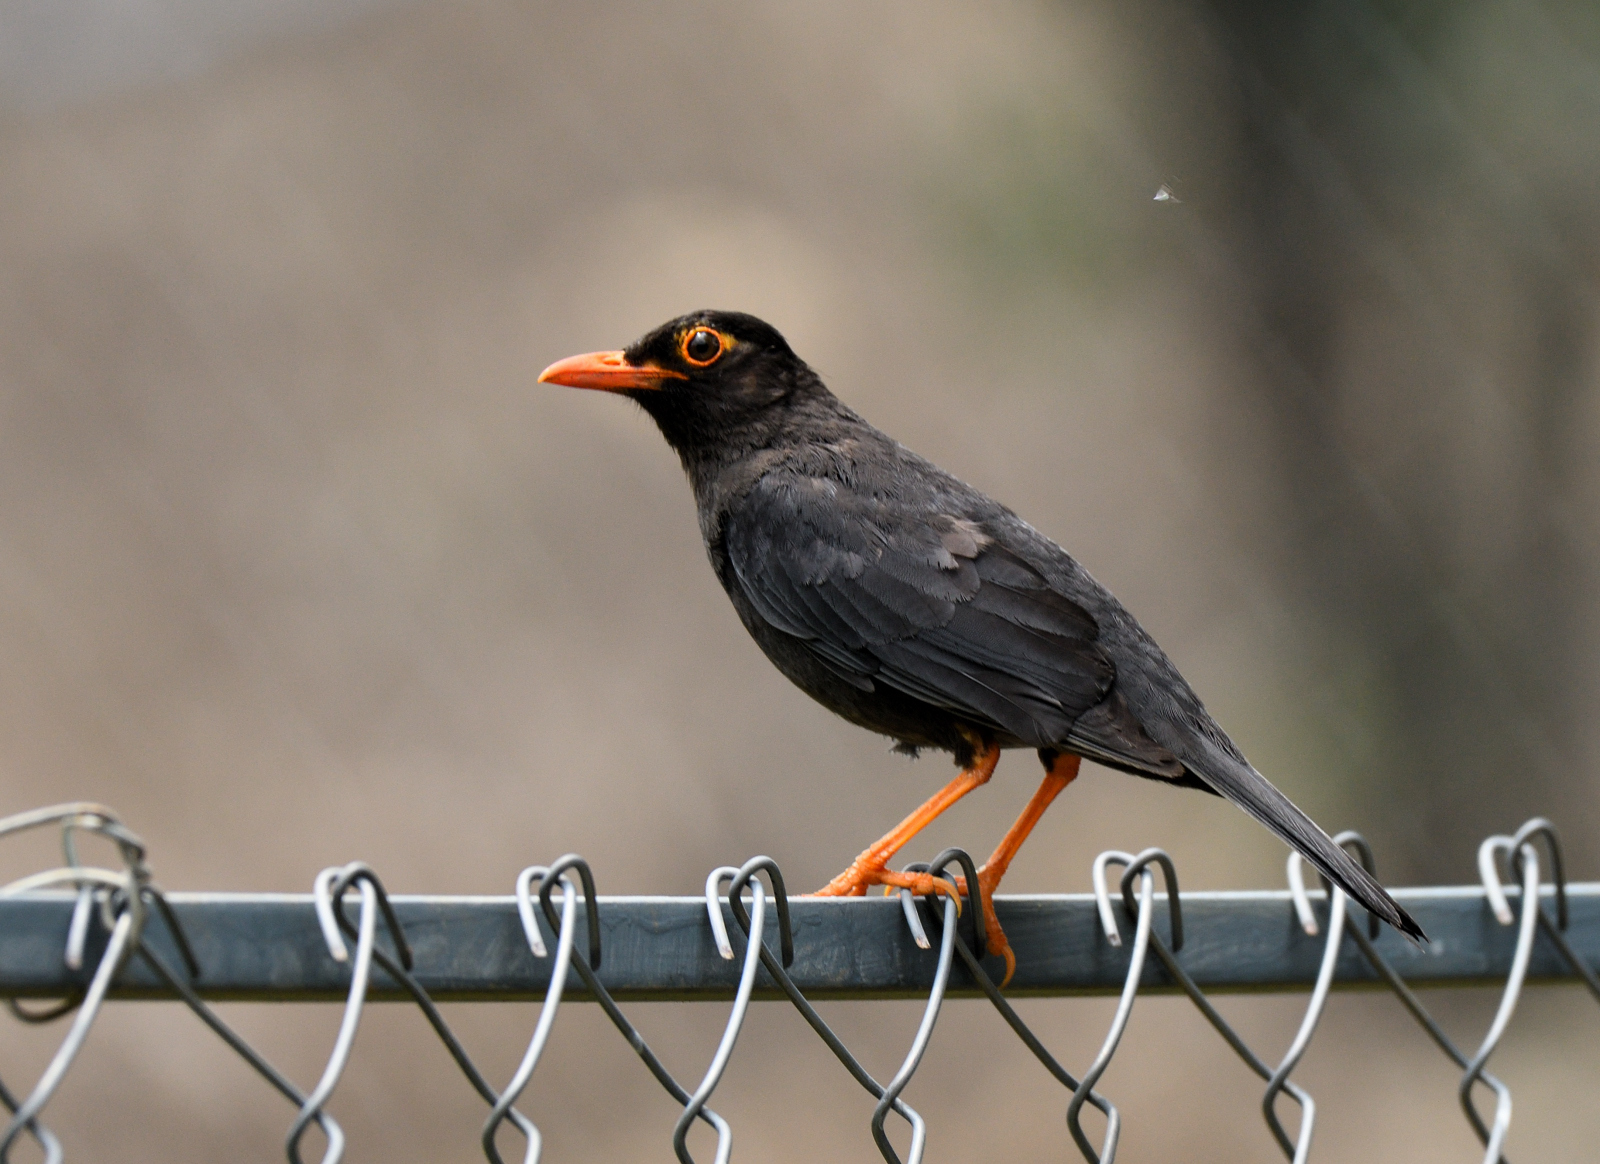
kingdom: Animalia
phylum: Chordata
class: Aves
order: Passeriformes
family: Turdidae
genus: Turdus
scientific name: Turdus simillimus
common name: Indian blackbird
